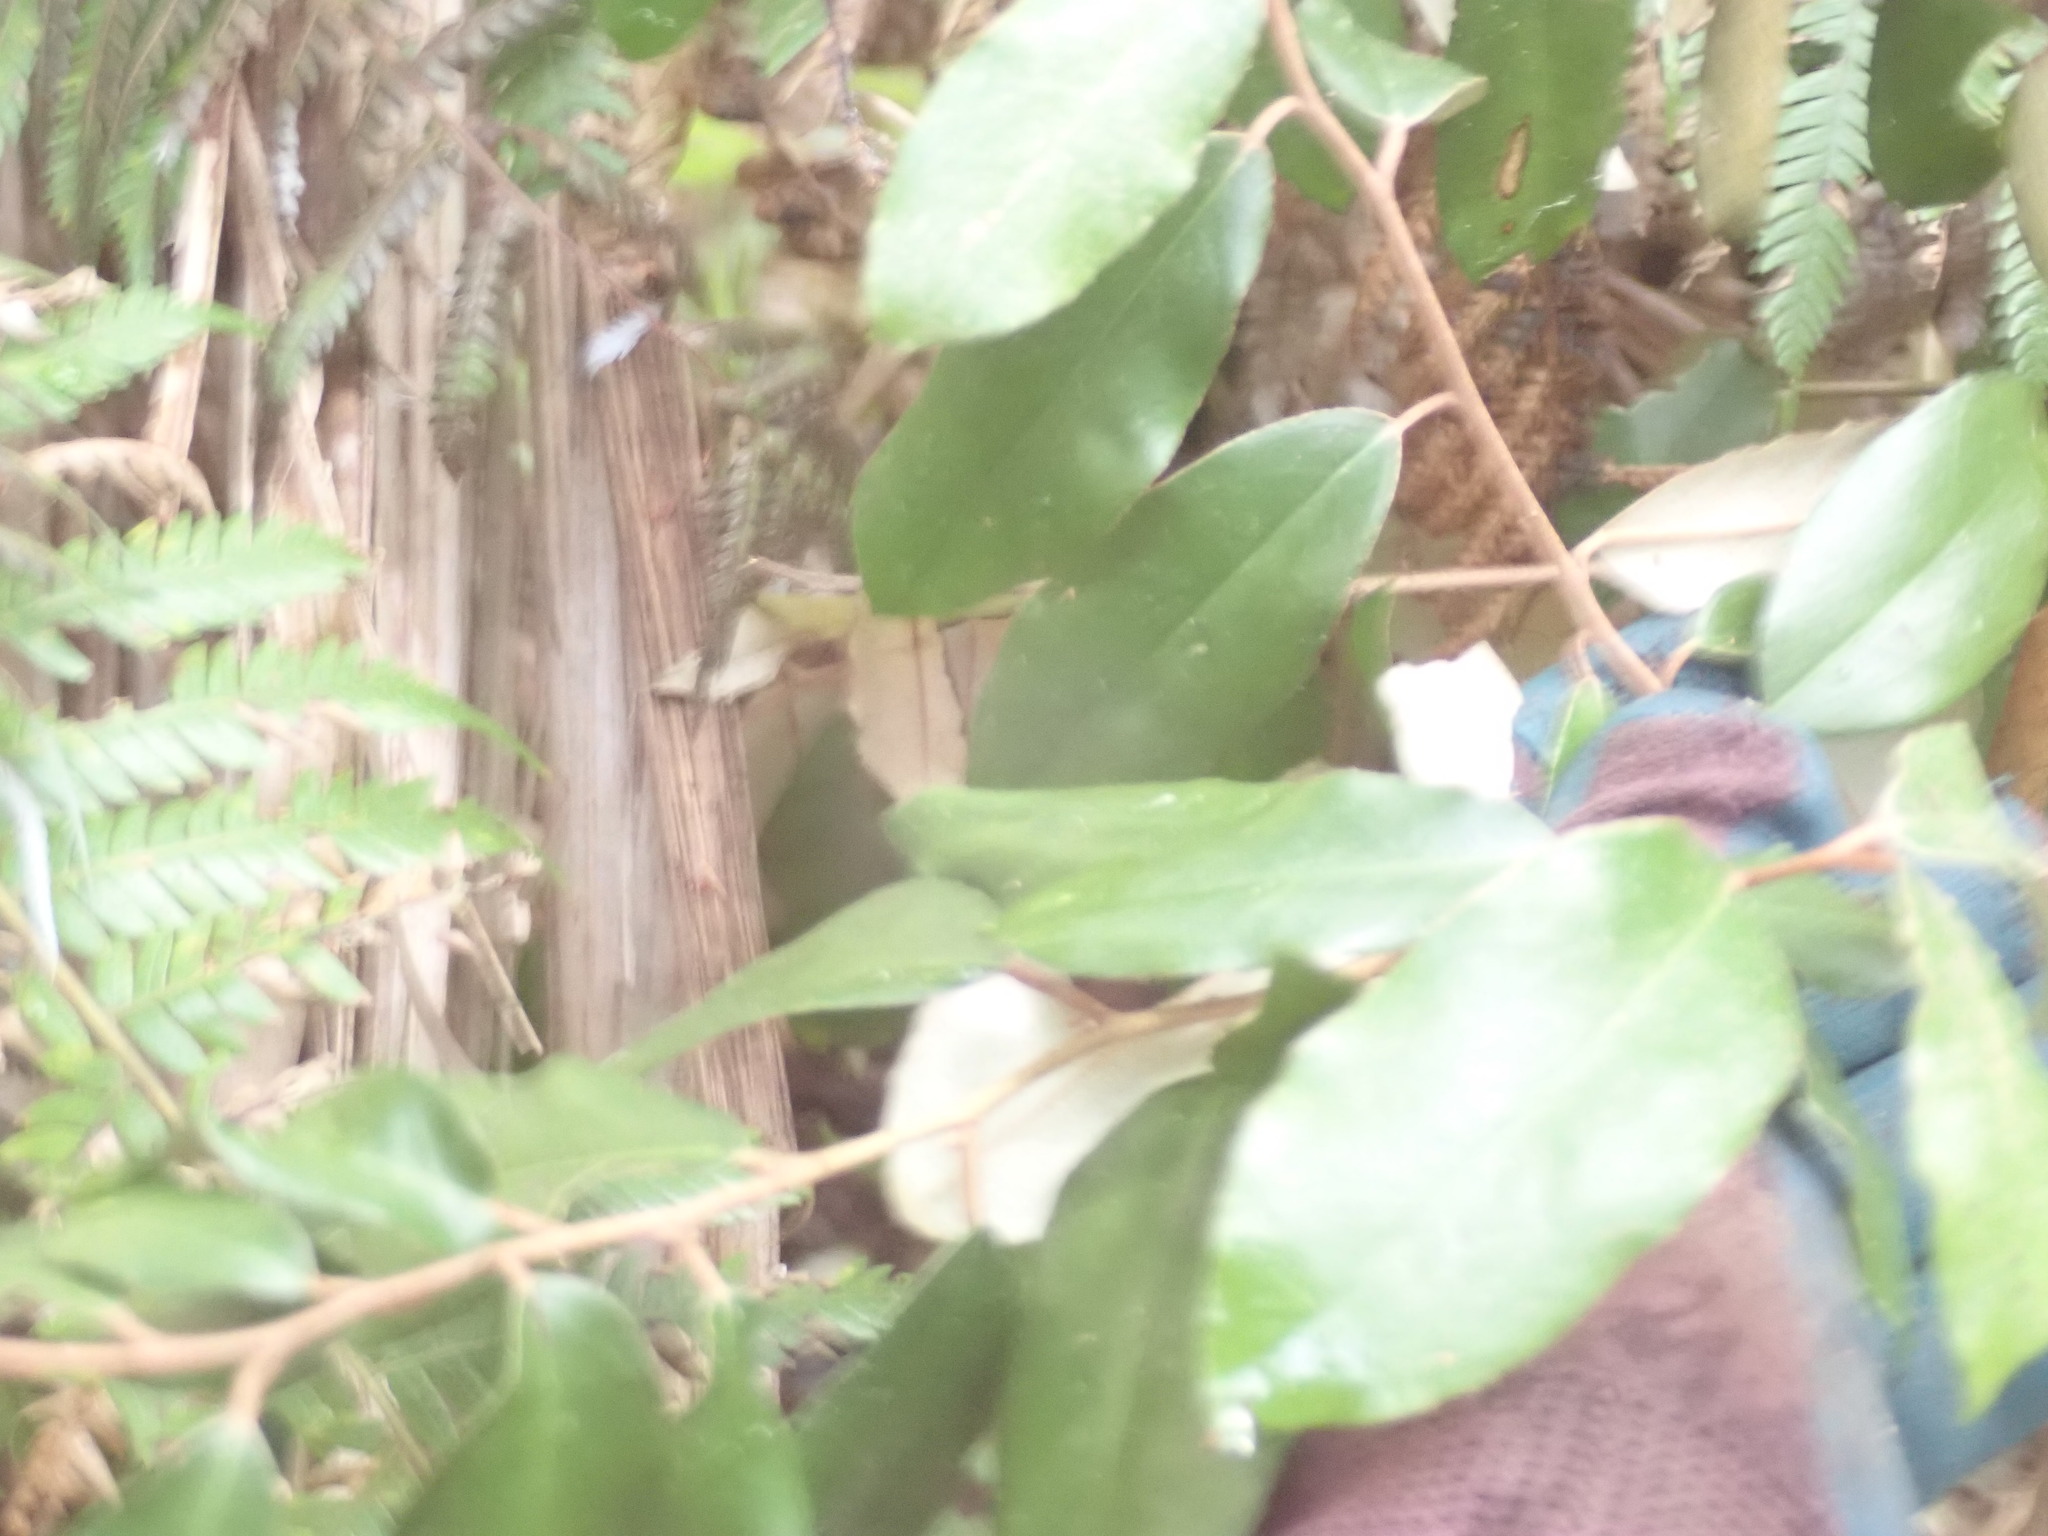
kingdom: Plantae
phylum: Tracheophyta
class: Magnoliopsida
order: Rosales
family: Elaeagnaceae
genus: Elaeagnus
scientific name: Elaeagnus reflexa
